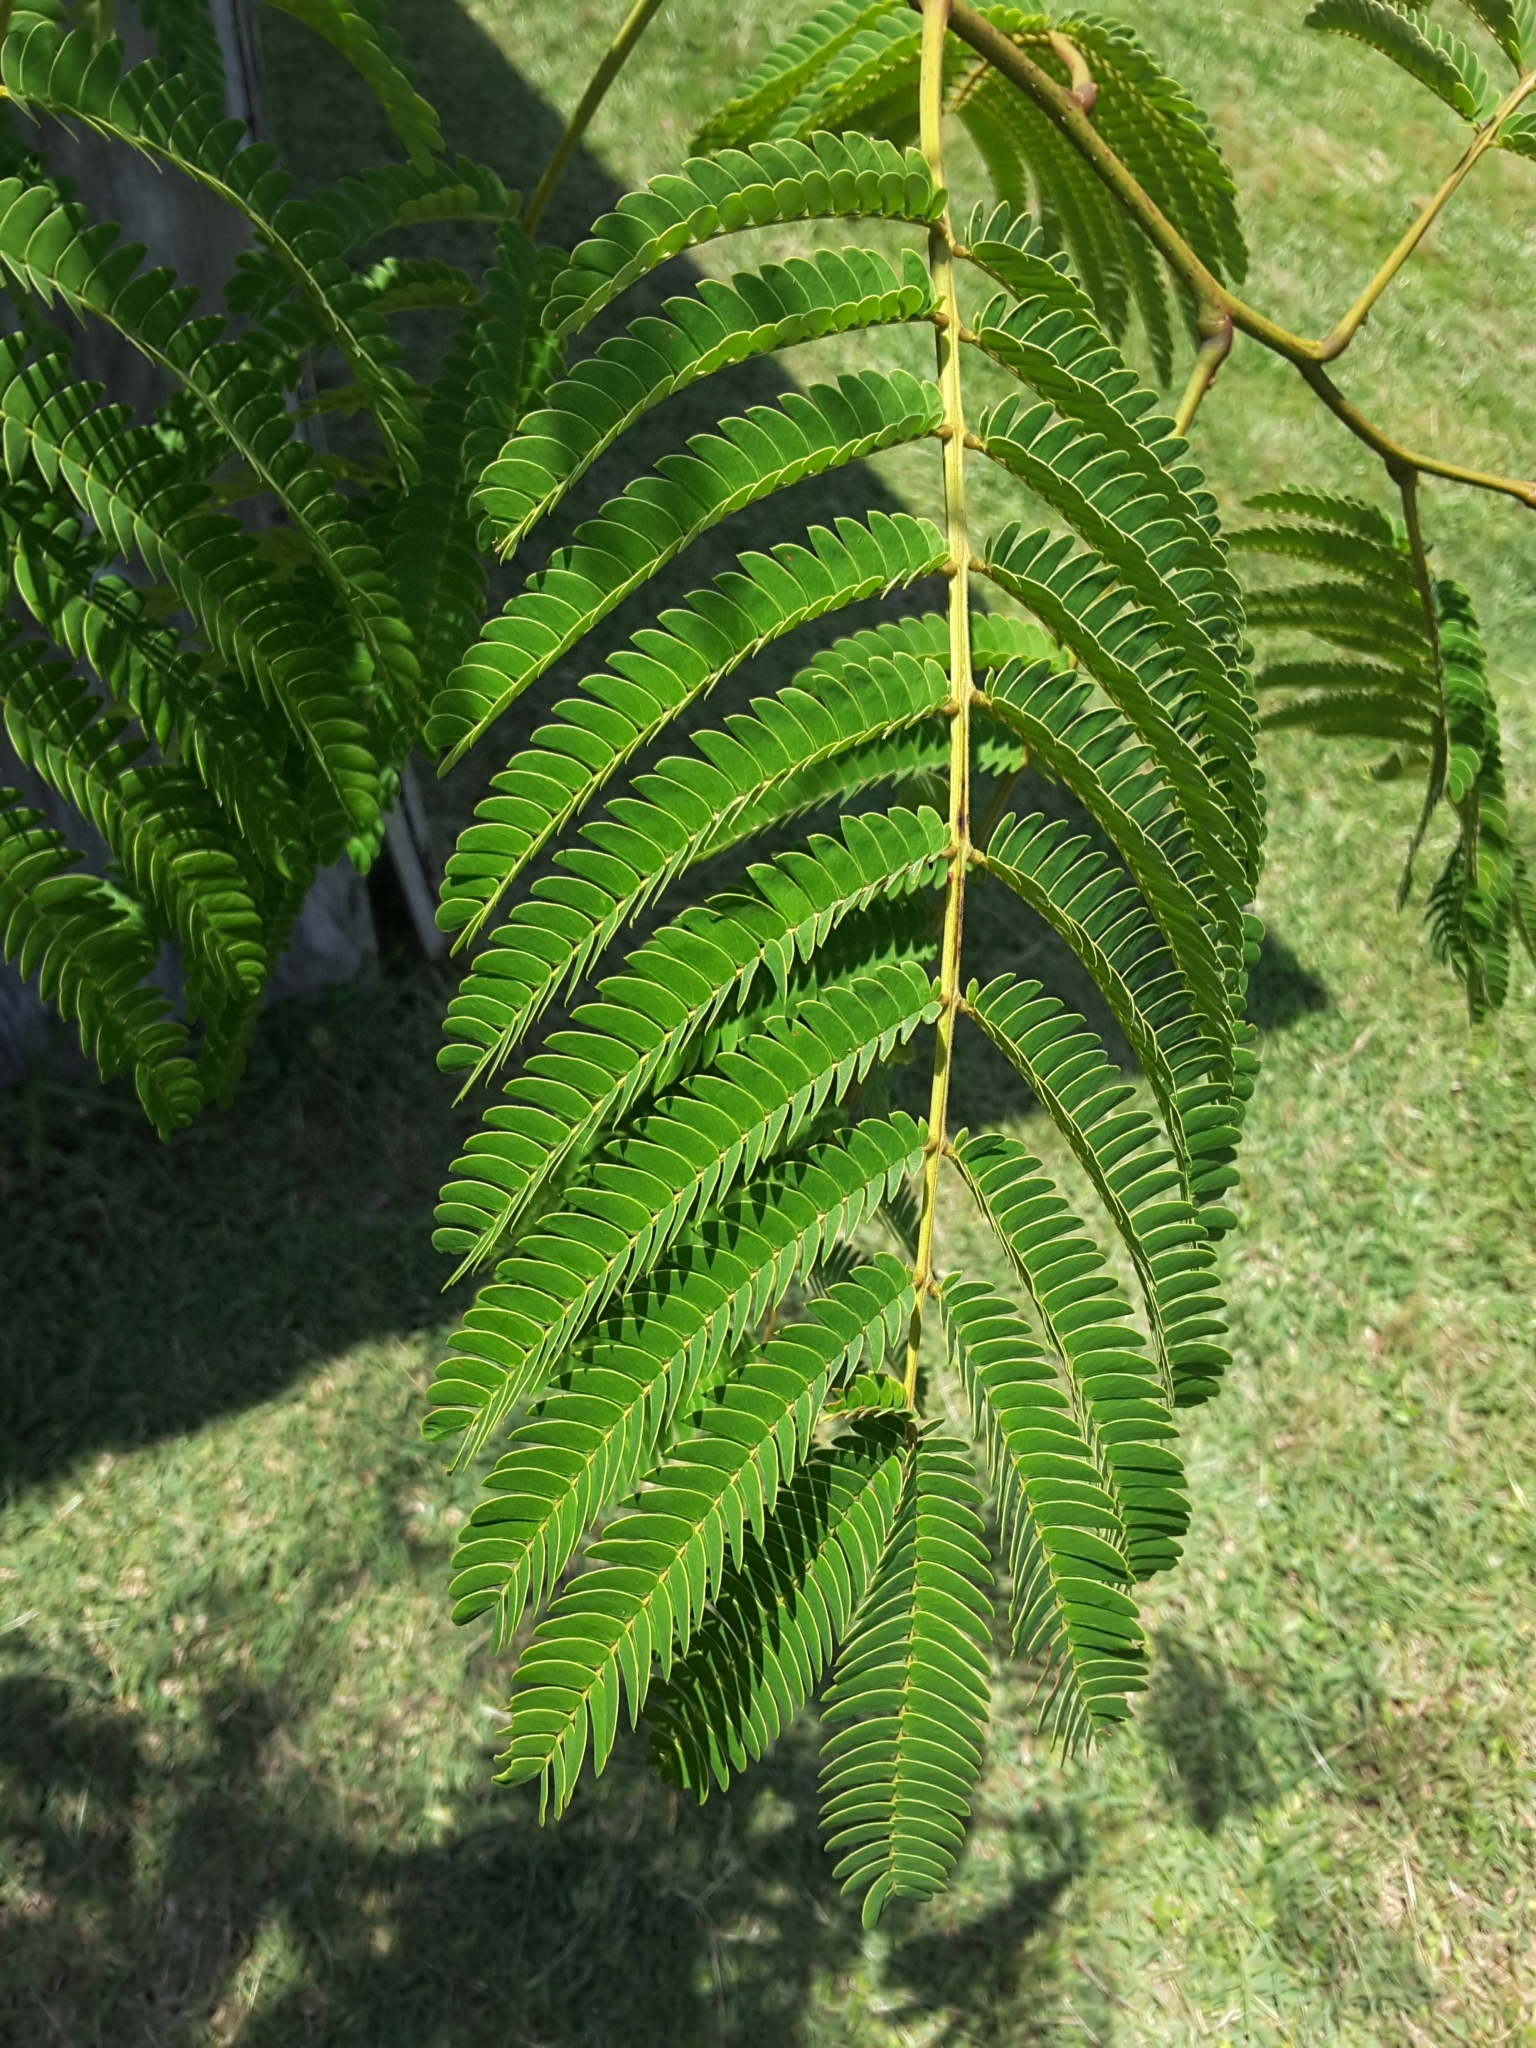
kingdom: Plantae
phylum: Tracheophyta
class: Magnoliopsida
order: Fabales
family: Fabaceae
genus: Albizia
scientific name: Albizia julibrissin
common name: Silktree
